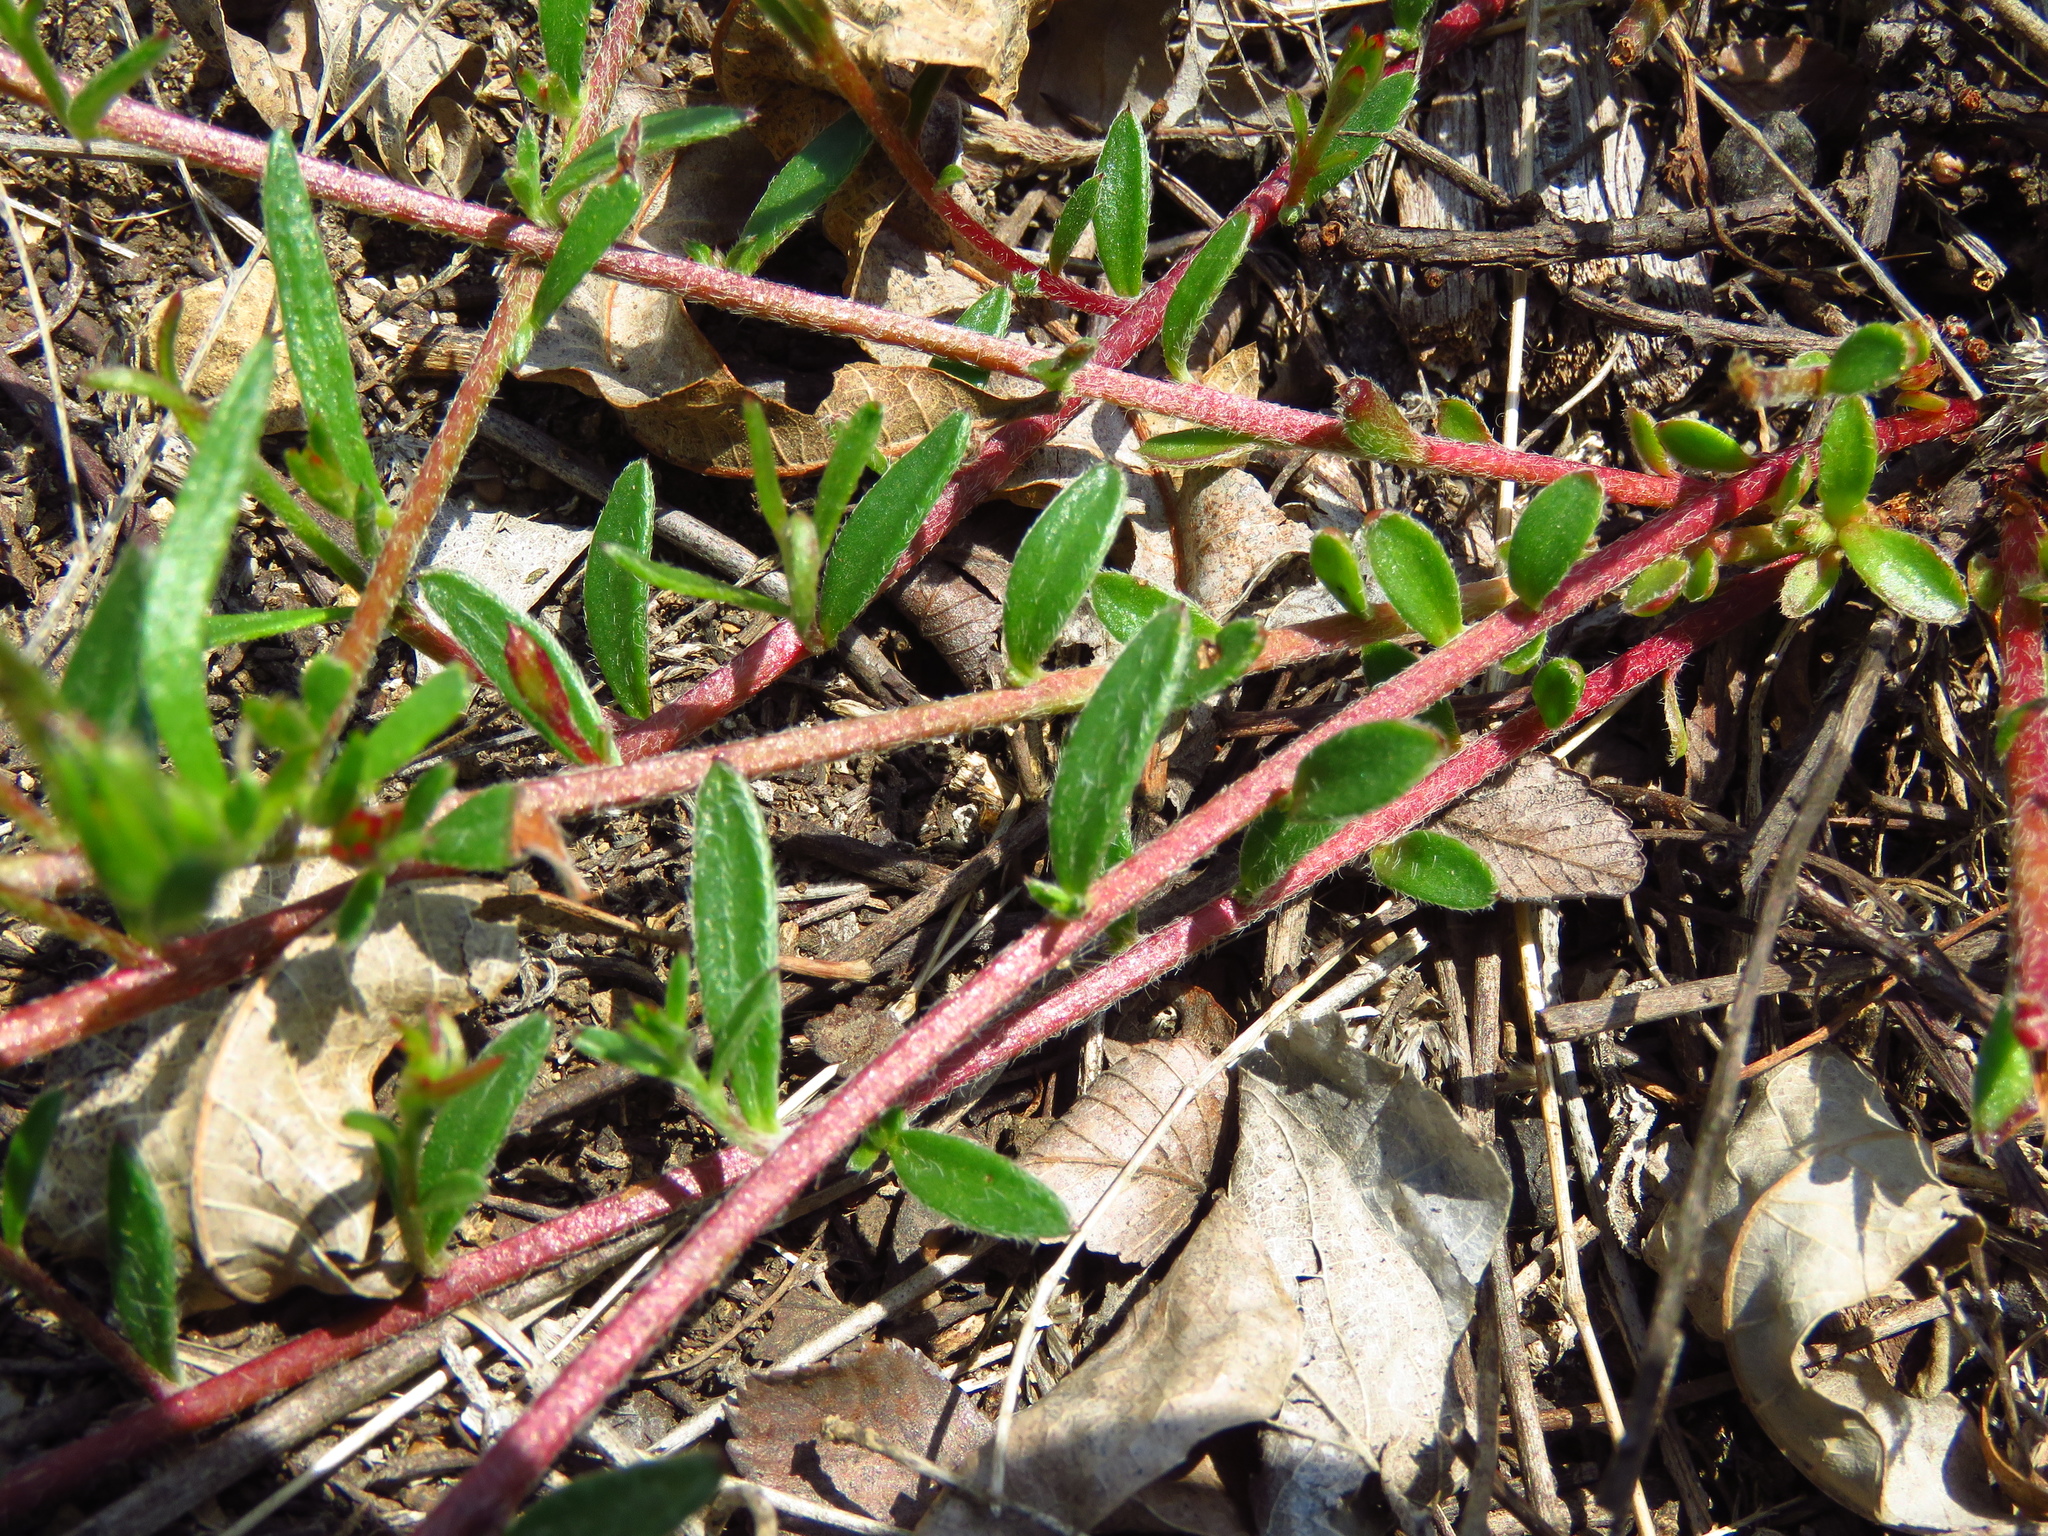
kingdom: Plantae
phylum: Tracheophyta
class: Magnoliopsida
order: Zygophyllales
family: Krameriaceae
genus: Krameria
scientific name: Krameria lanceolata
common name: Ratany
